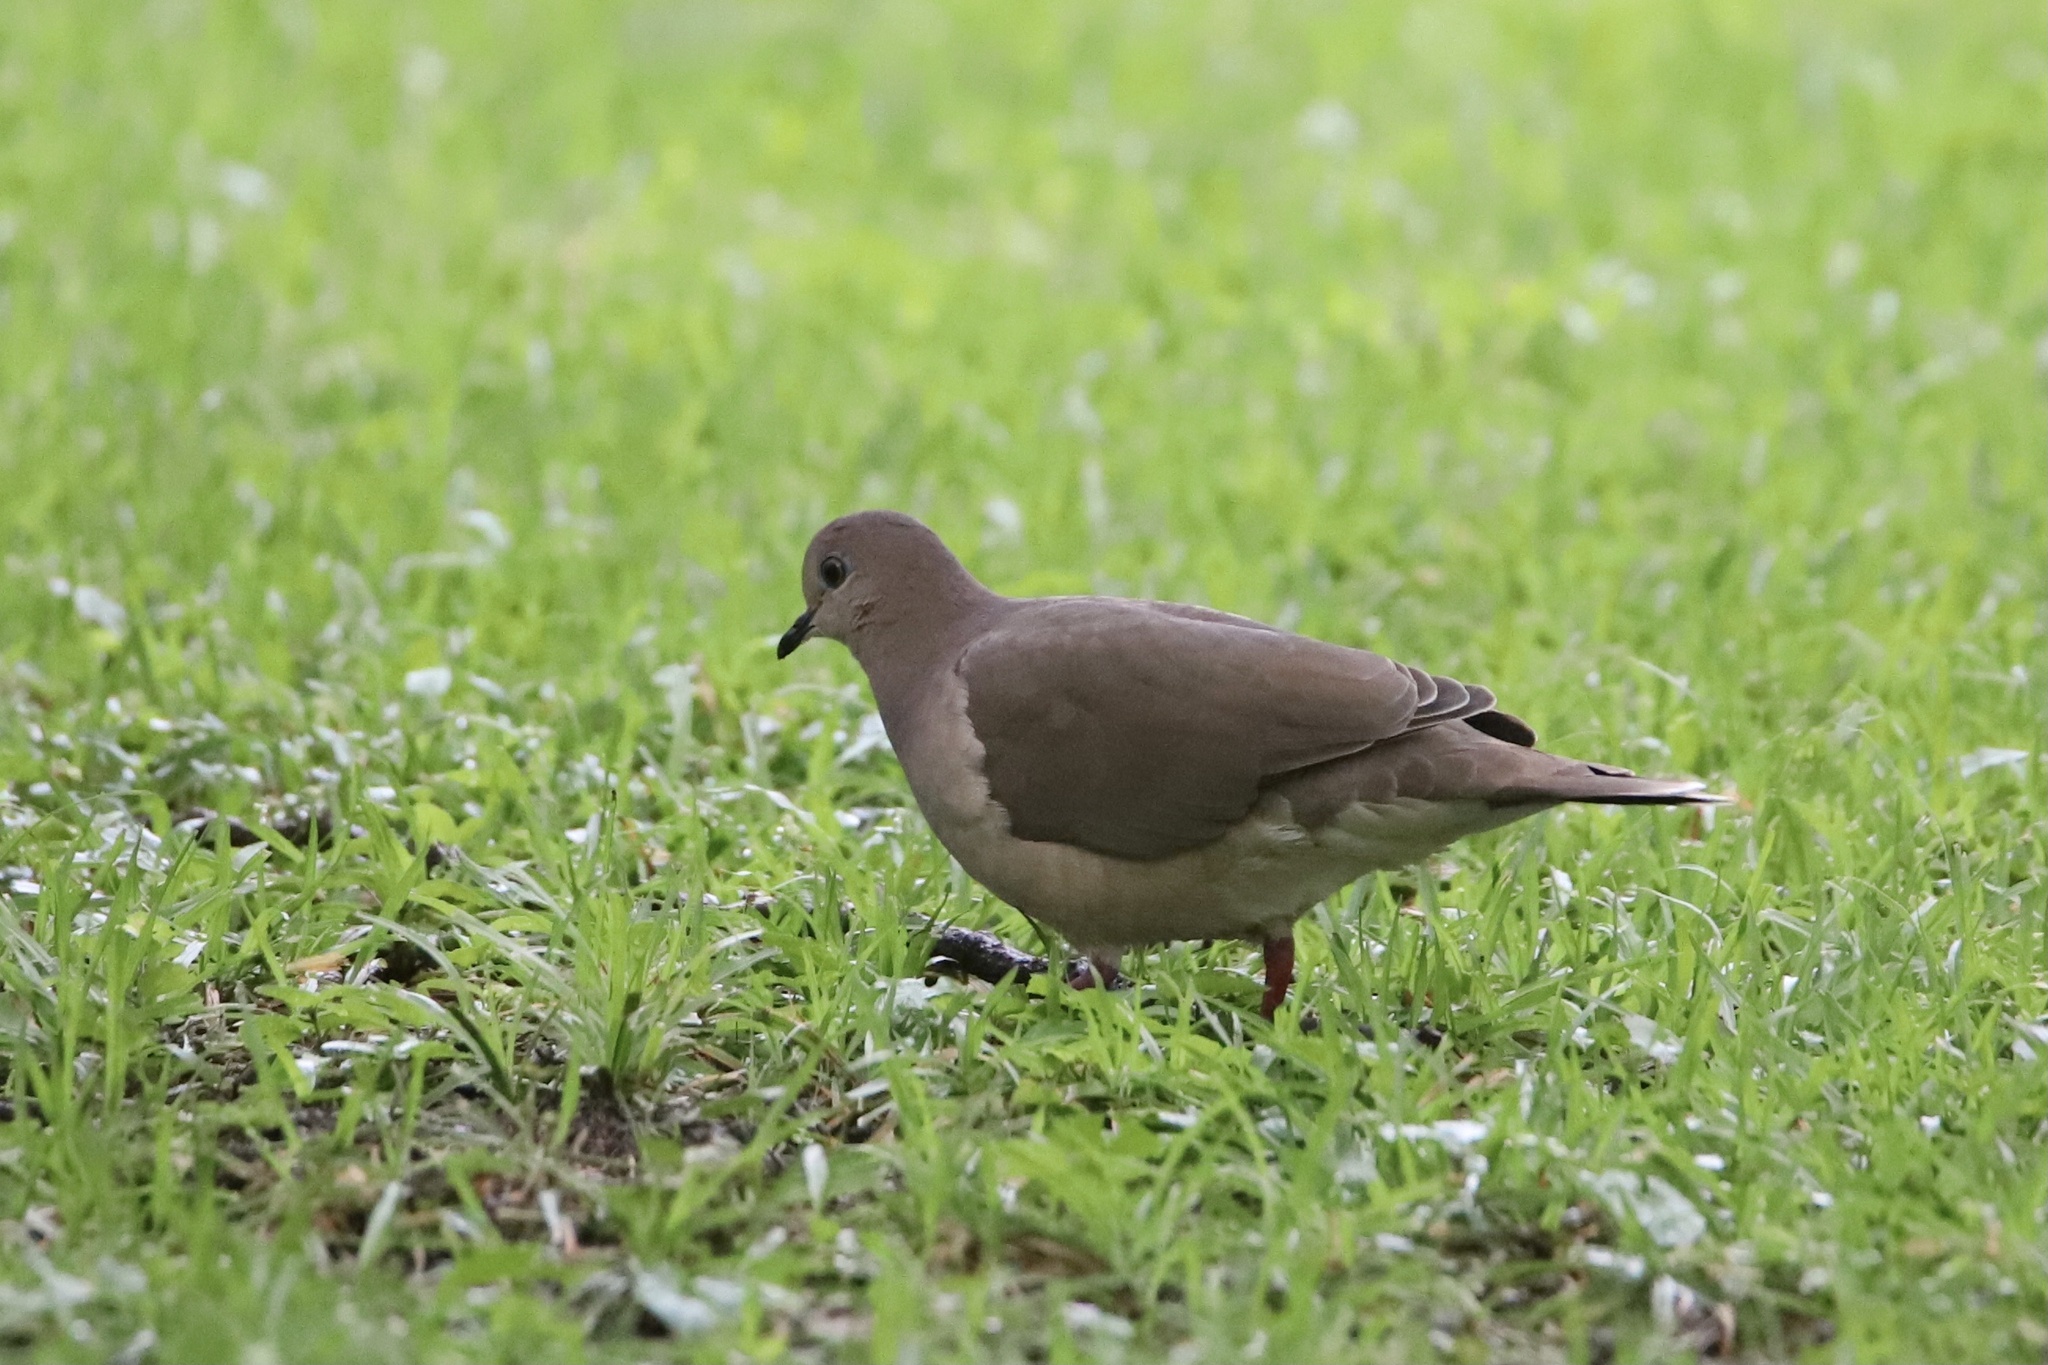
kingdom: Animalia
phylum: Chordata
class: Aves
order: Columbiformes
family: Columbidae
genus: Leptotila
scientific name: Leptotila verreauxi
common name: White-tipped dove
